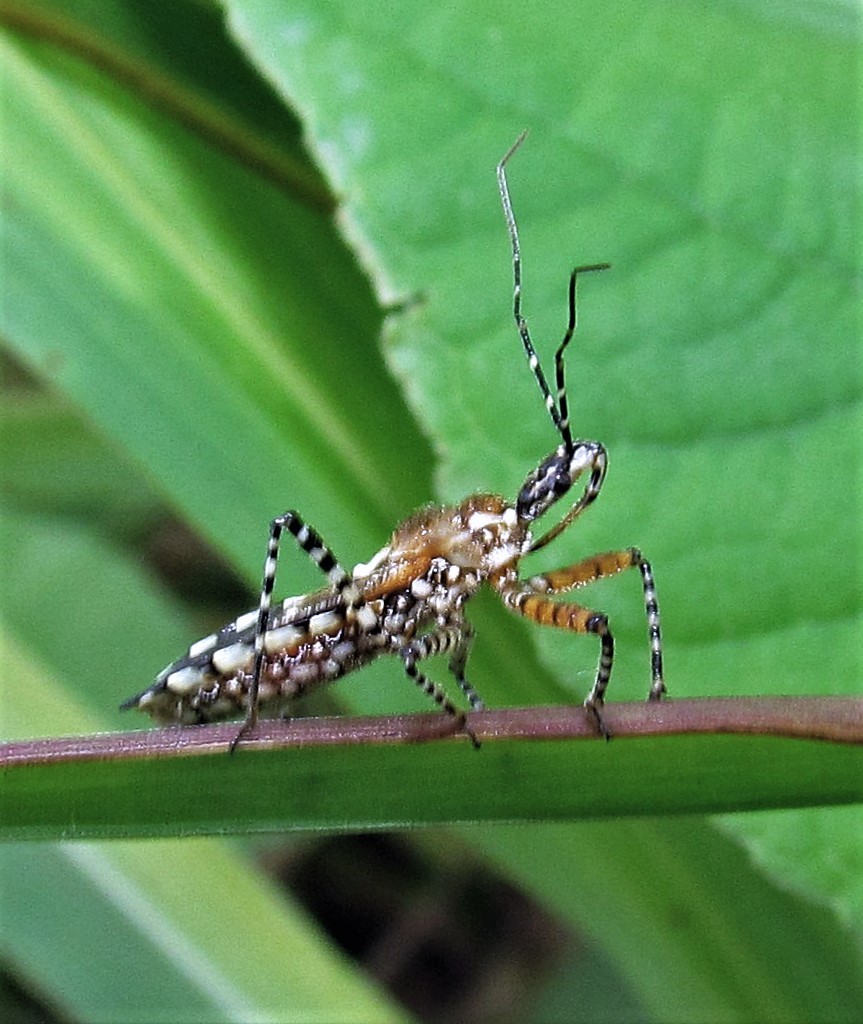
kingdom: Animalia
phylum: Arthropoda
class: Insecta
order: Hemiptera
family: Reduviidae
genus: Cosmoclopius
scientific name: Cosmoclopius nigroannulatus
